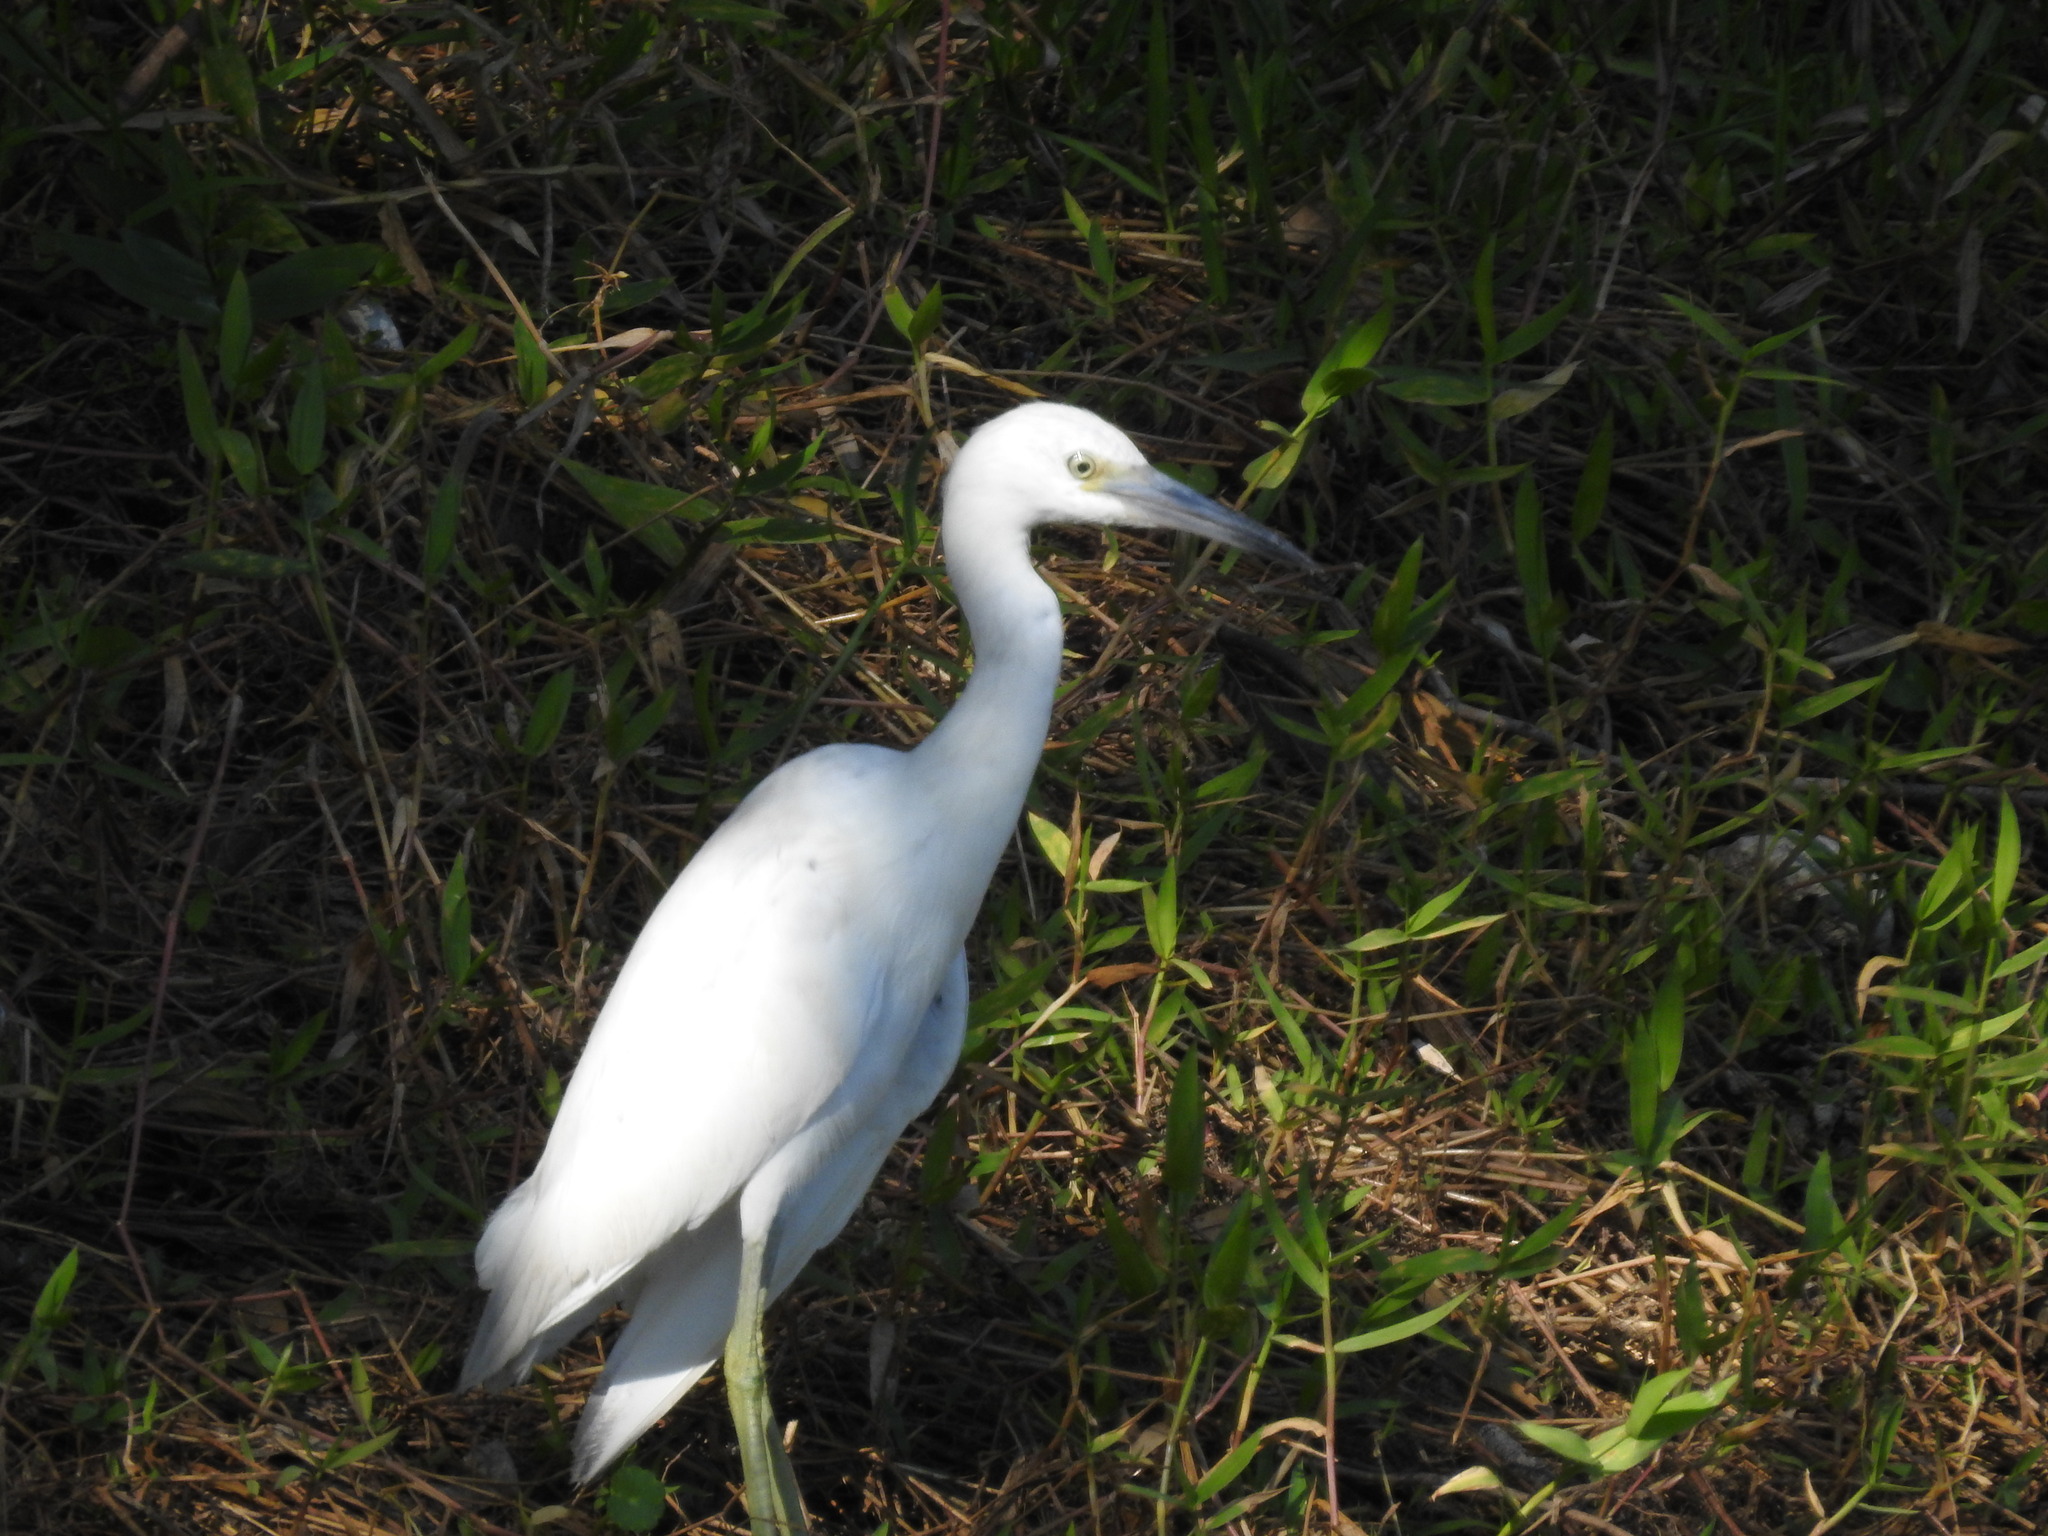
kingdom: Animalia
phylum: Chordata
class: Aves
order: Pelecaniformes
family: Ardeidae
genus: Egretta
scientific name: Egretta caerulea
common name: Little blue heron
